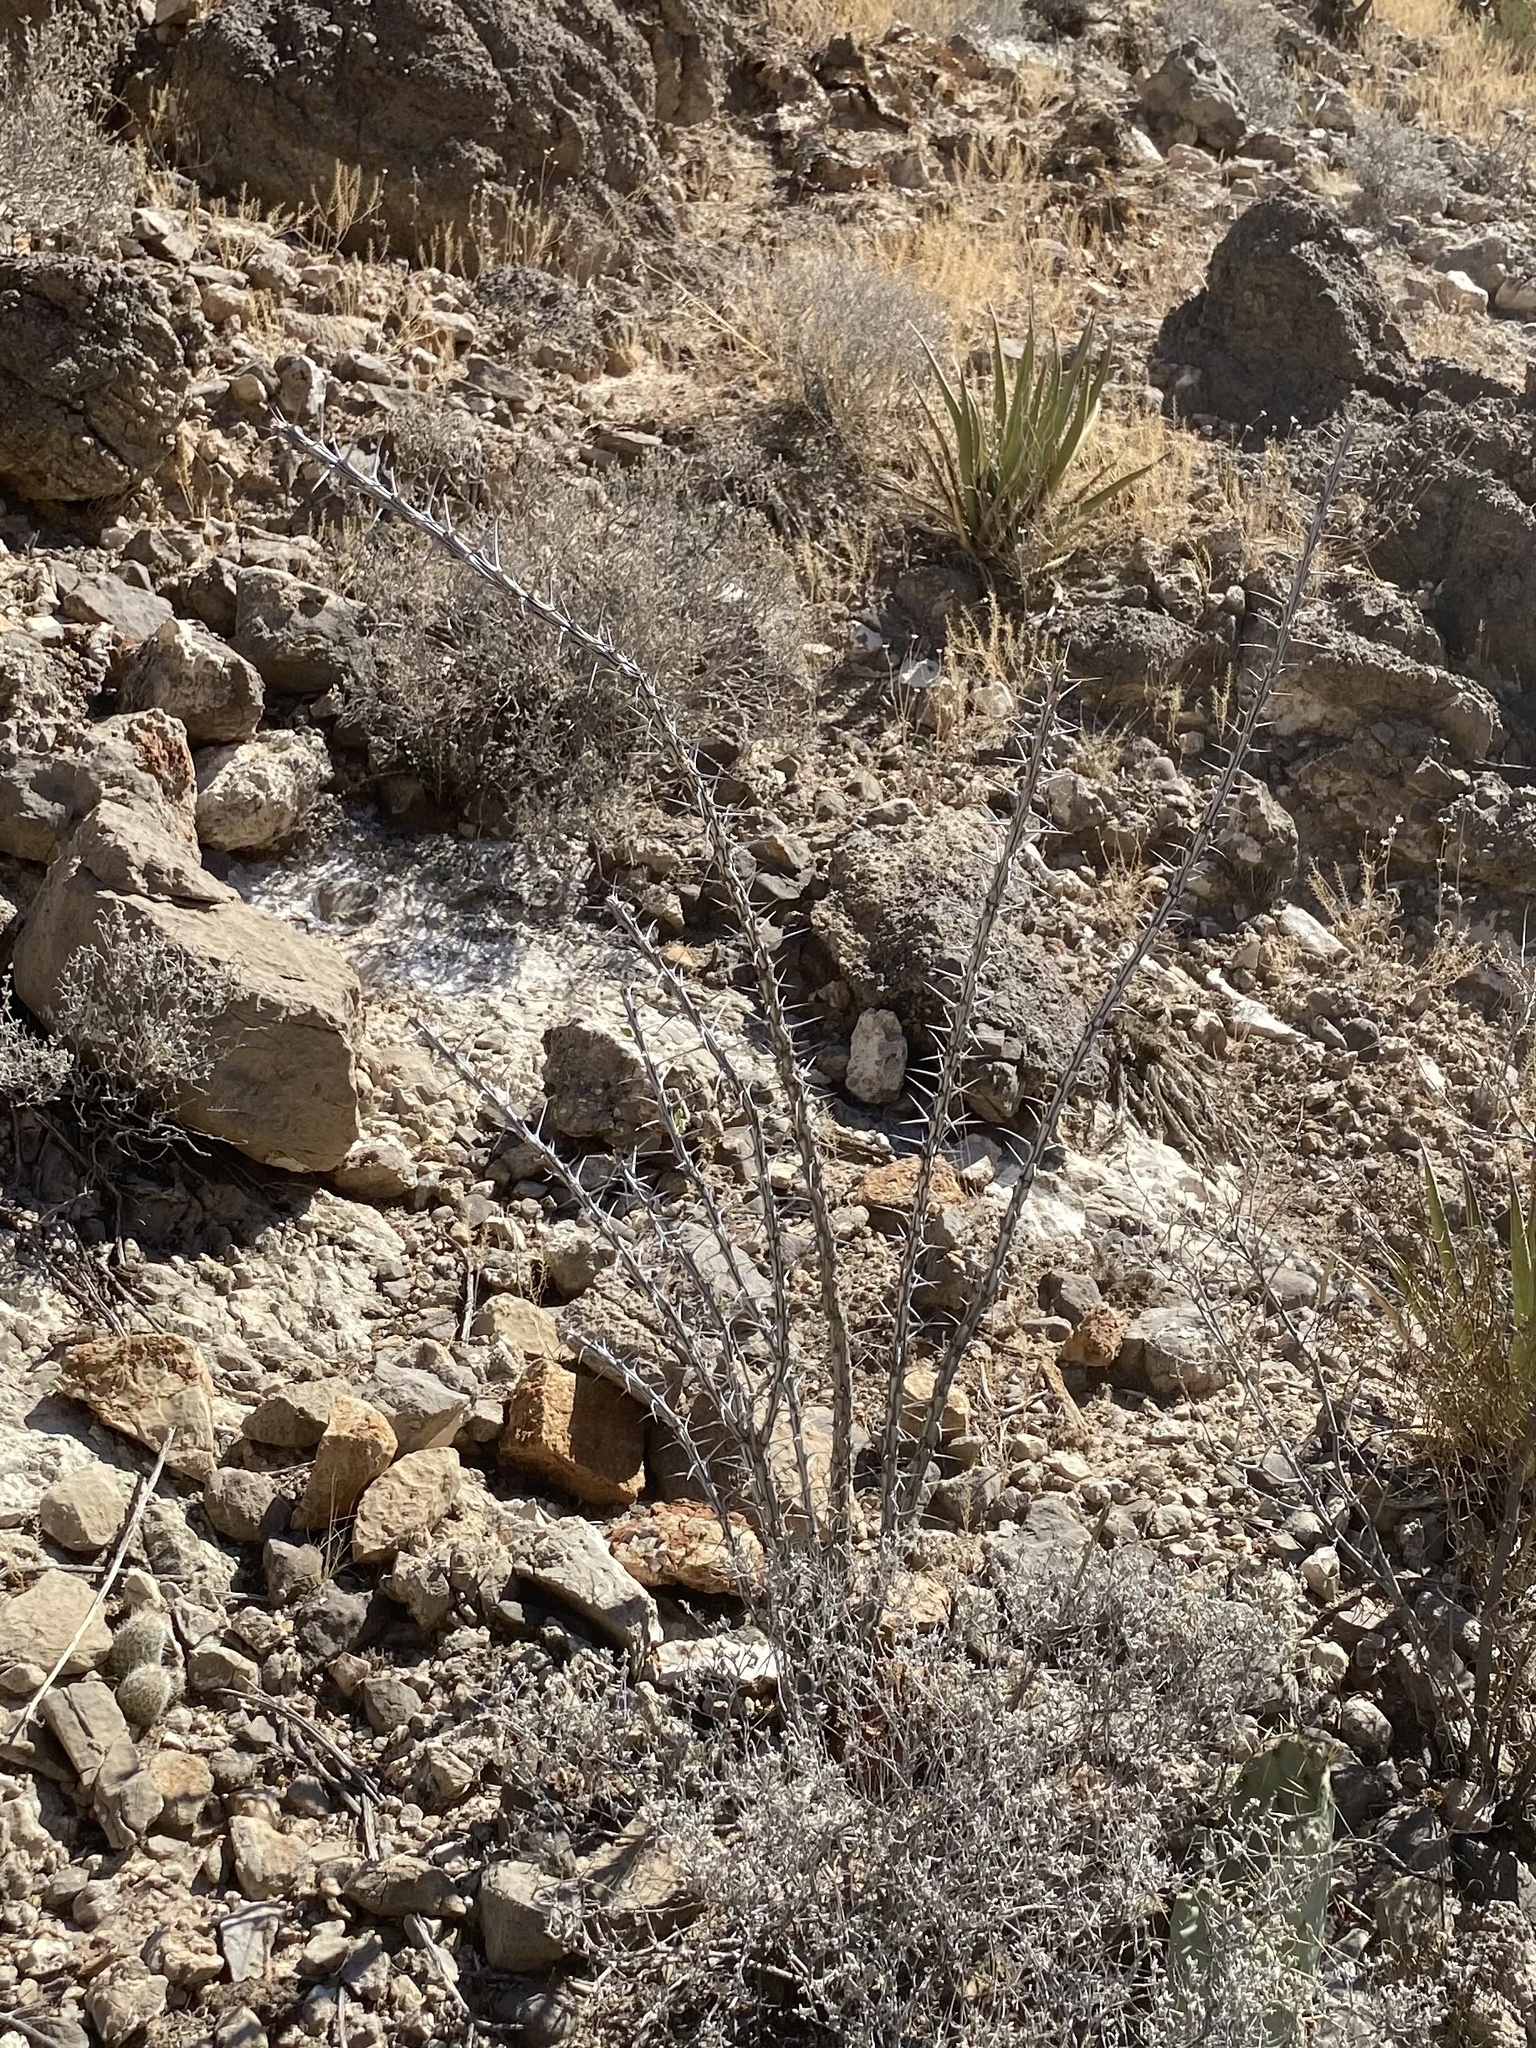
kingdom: Plantae
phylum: Tracheophyta
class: Magnoliopsida
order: Ericales
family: Fouquieriaceae
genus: Fouquieria
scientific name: Fouquieria splendens
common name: Vine-cactus
